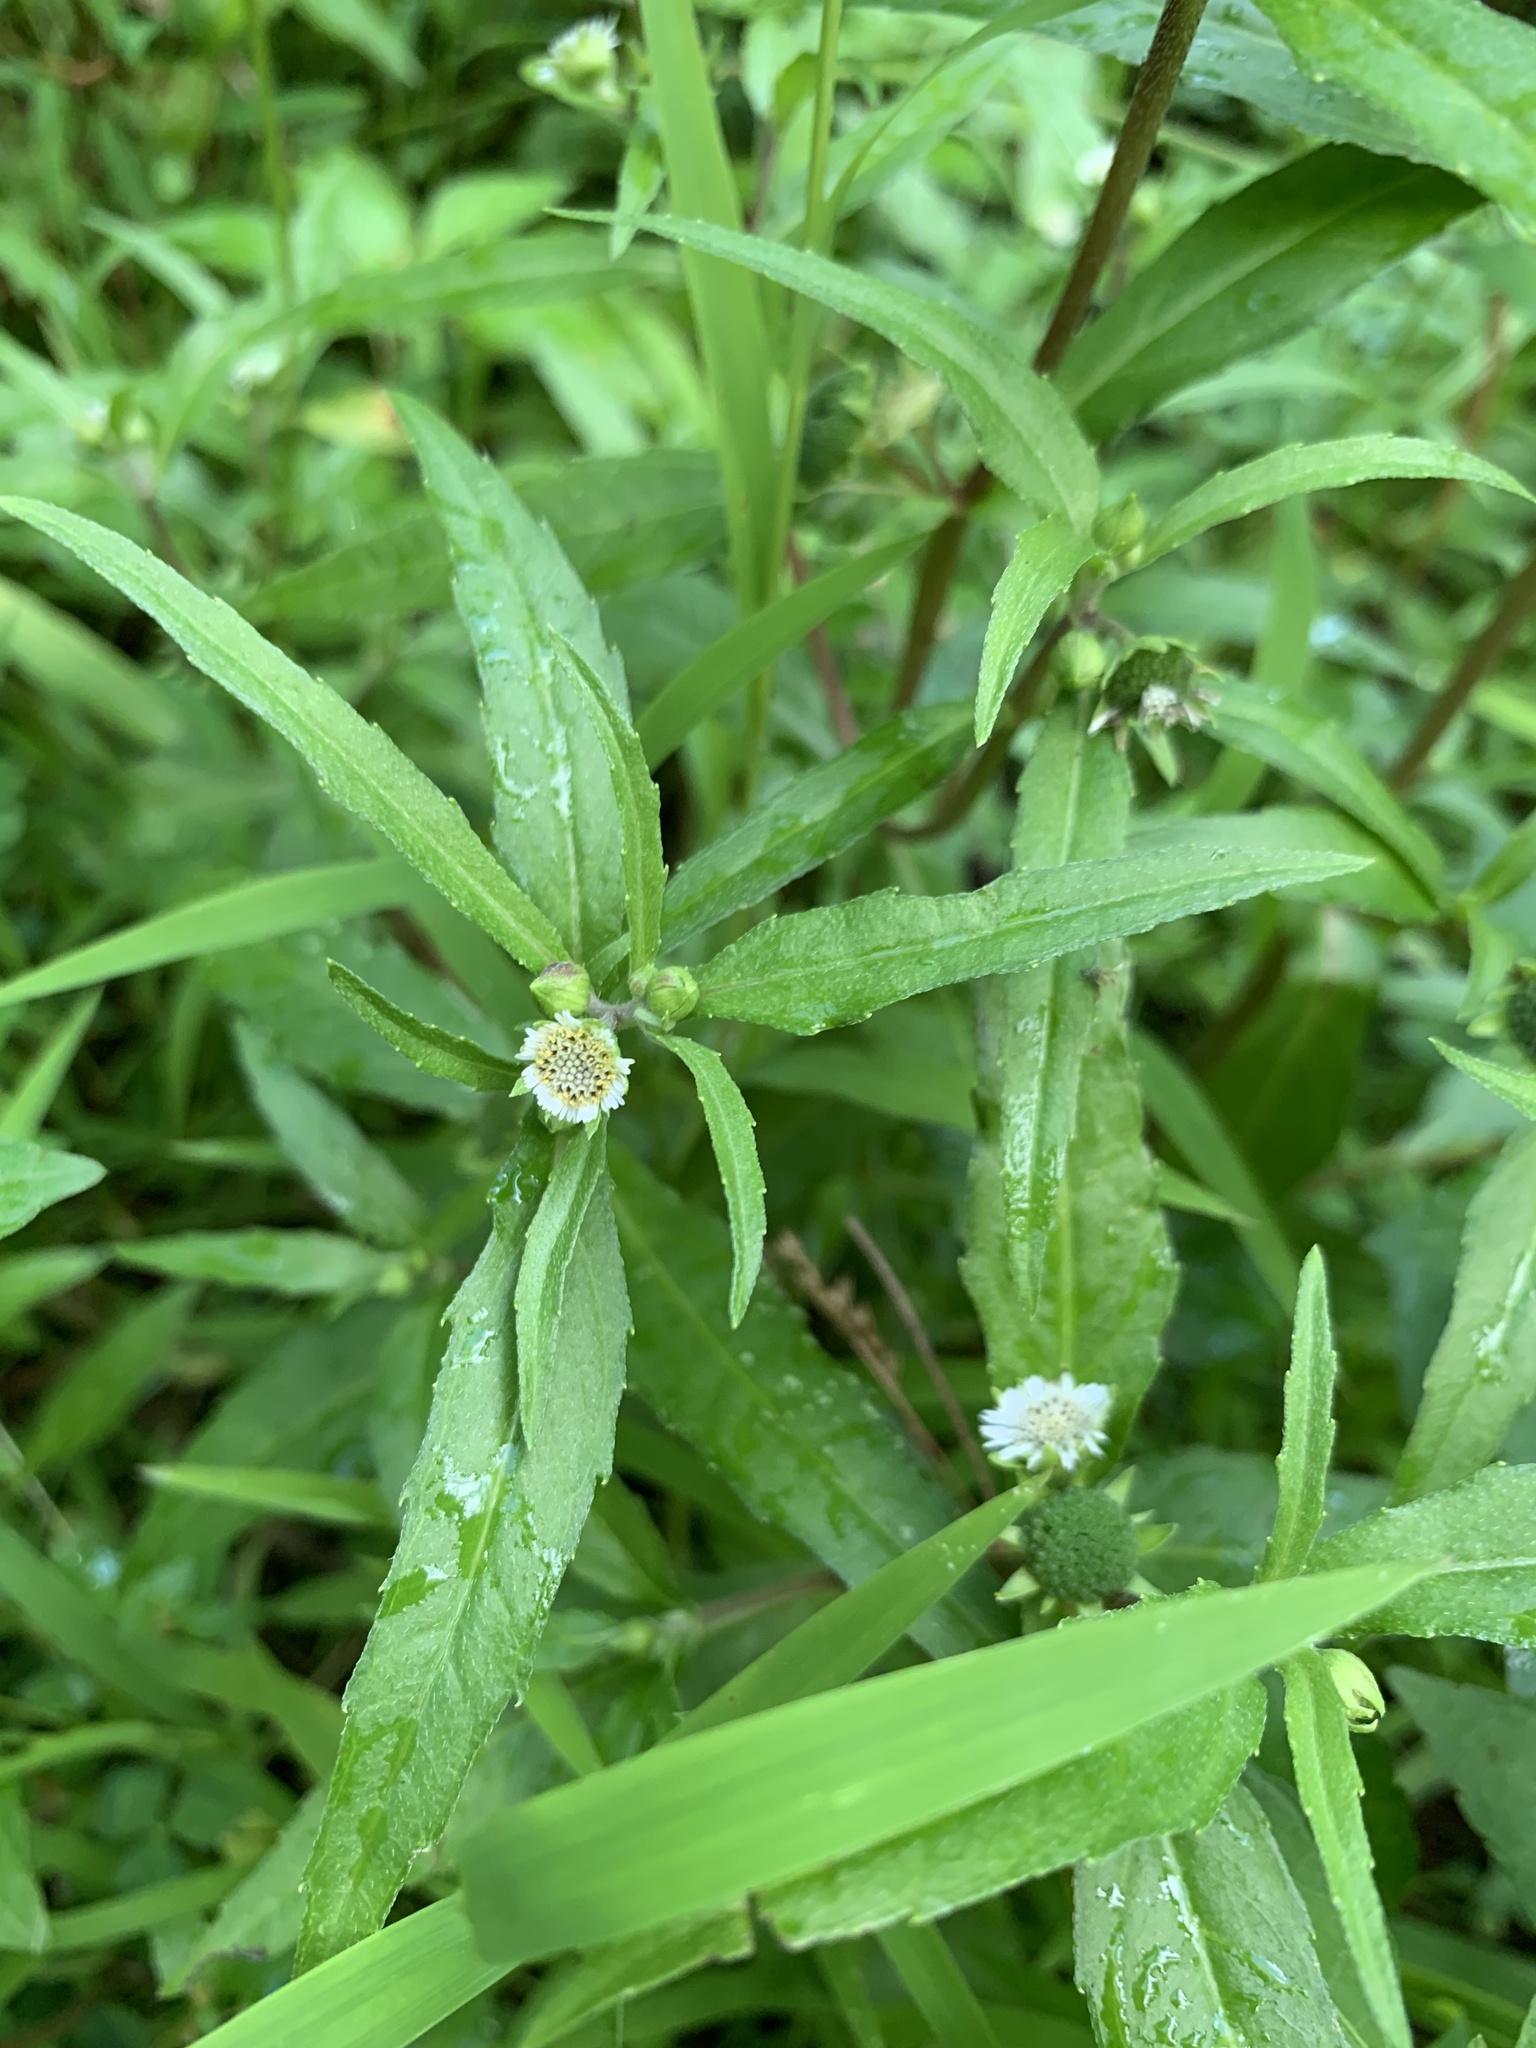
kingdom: Plantae
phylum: Tracheophyta
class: Magnoliopsida
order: Asterales
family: Asteraceae
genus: Eclipta
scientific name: Eclipta prostrata
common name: False daisy
